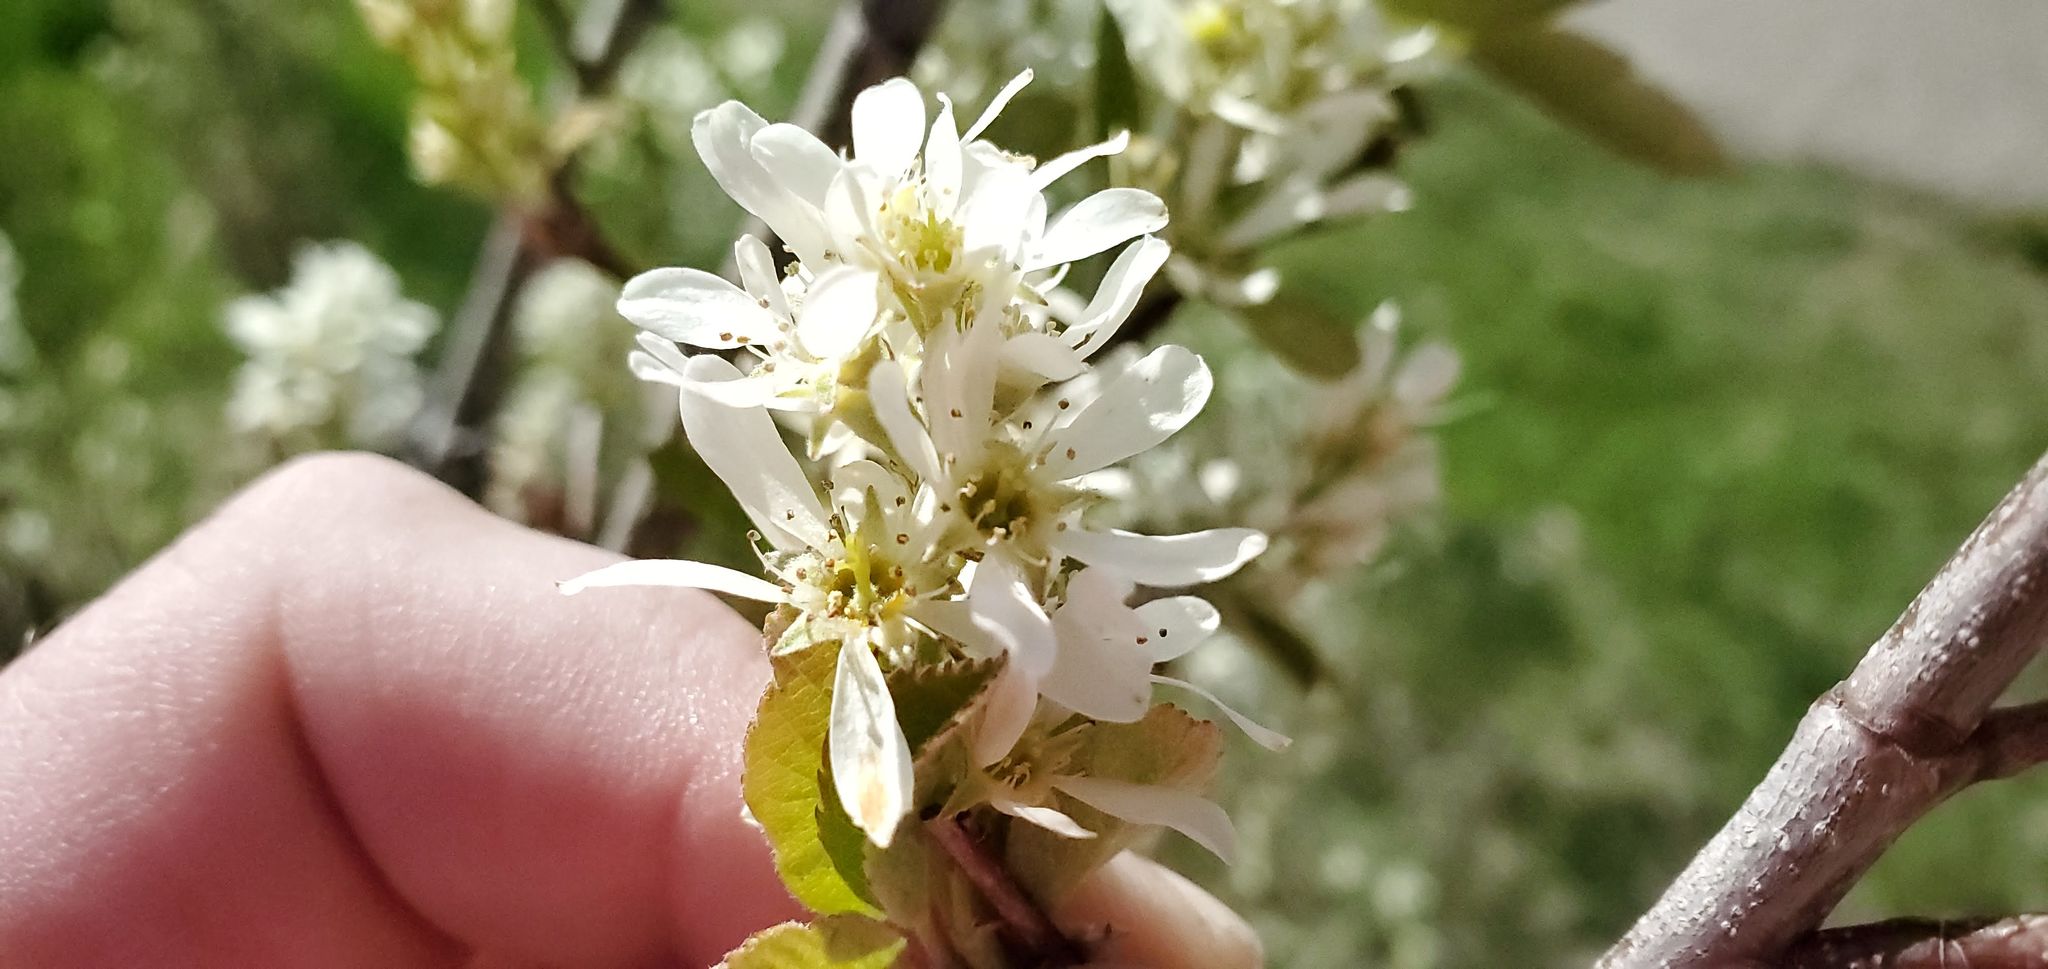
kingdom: Plantae
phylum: Tracheophyta
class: Magnoliopsida
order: Rosales
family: Rosaceae
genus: Amelanchier
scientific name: Amelanchier alnifolia
